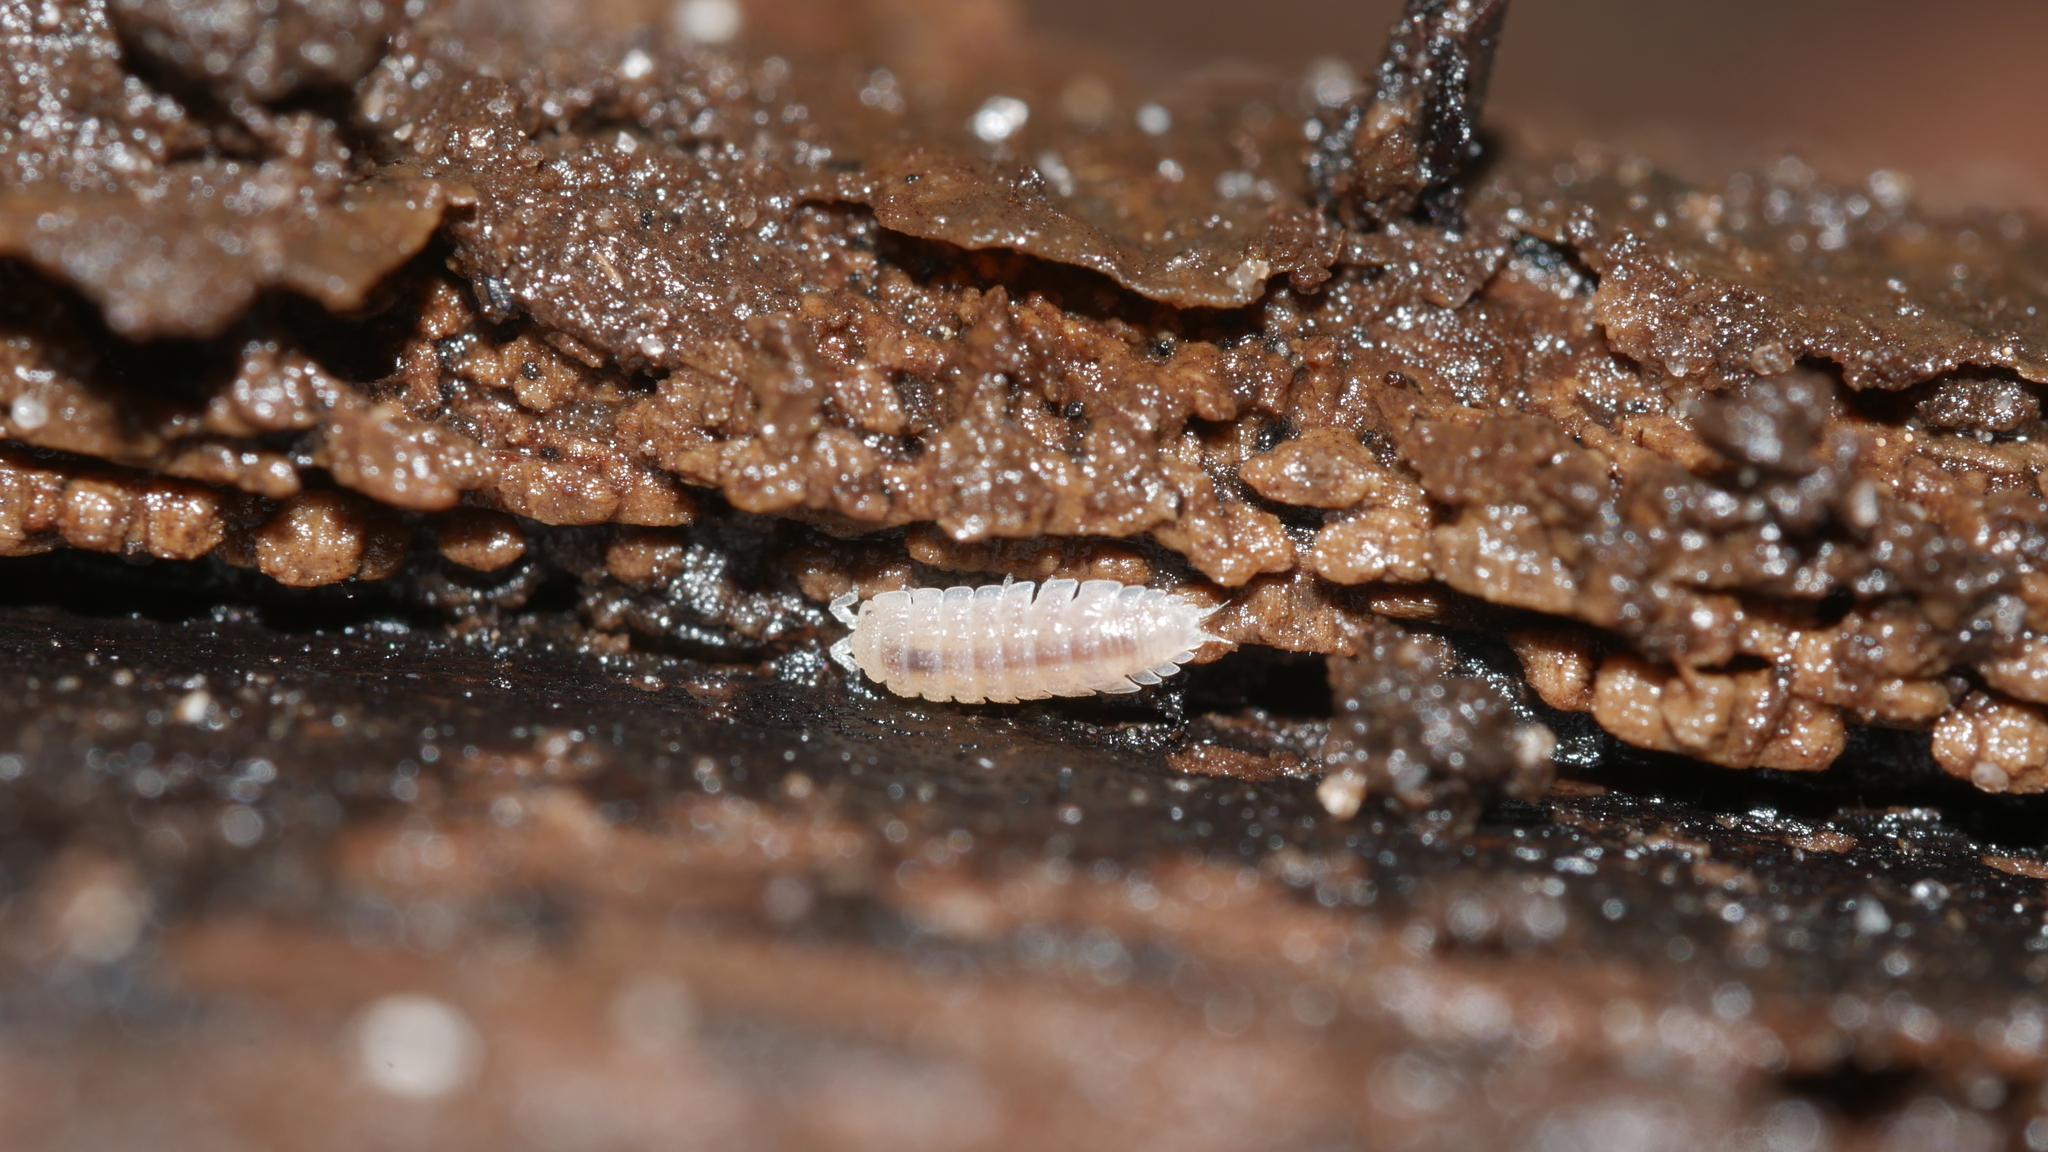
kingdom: Animalia
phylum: Arthropoda
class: Malacostraca
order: Isopoda
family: Trichoniscidae
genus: Haplophthalmus
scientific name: Haplophthalmus danicus
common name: Pillbug
